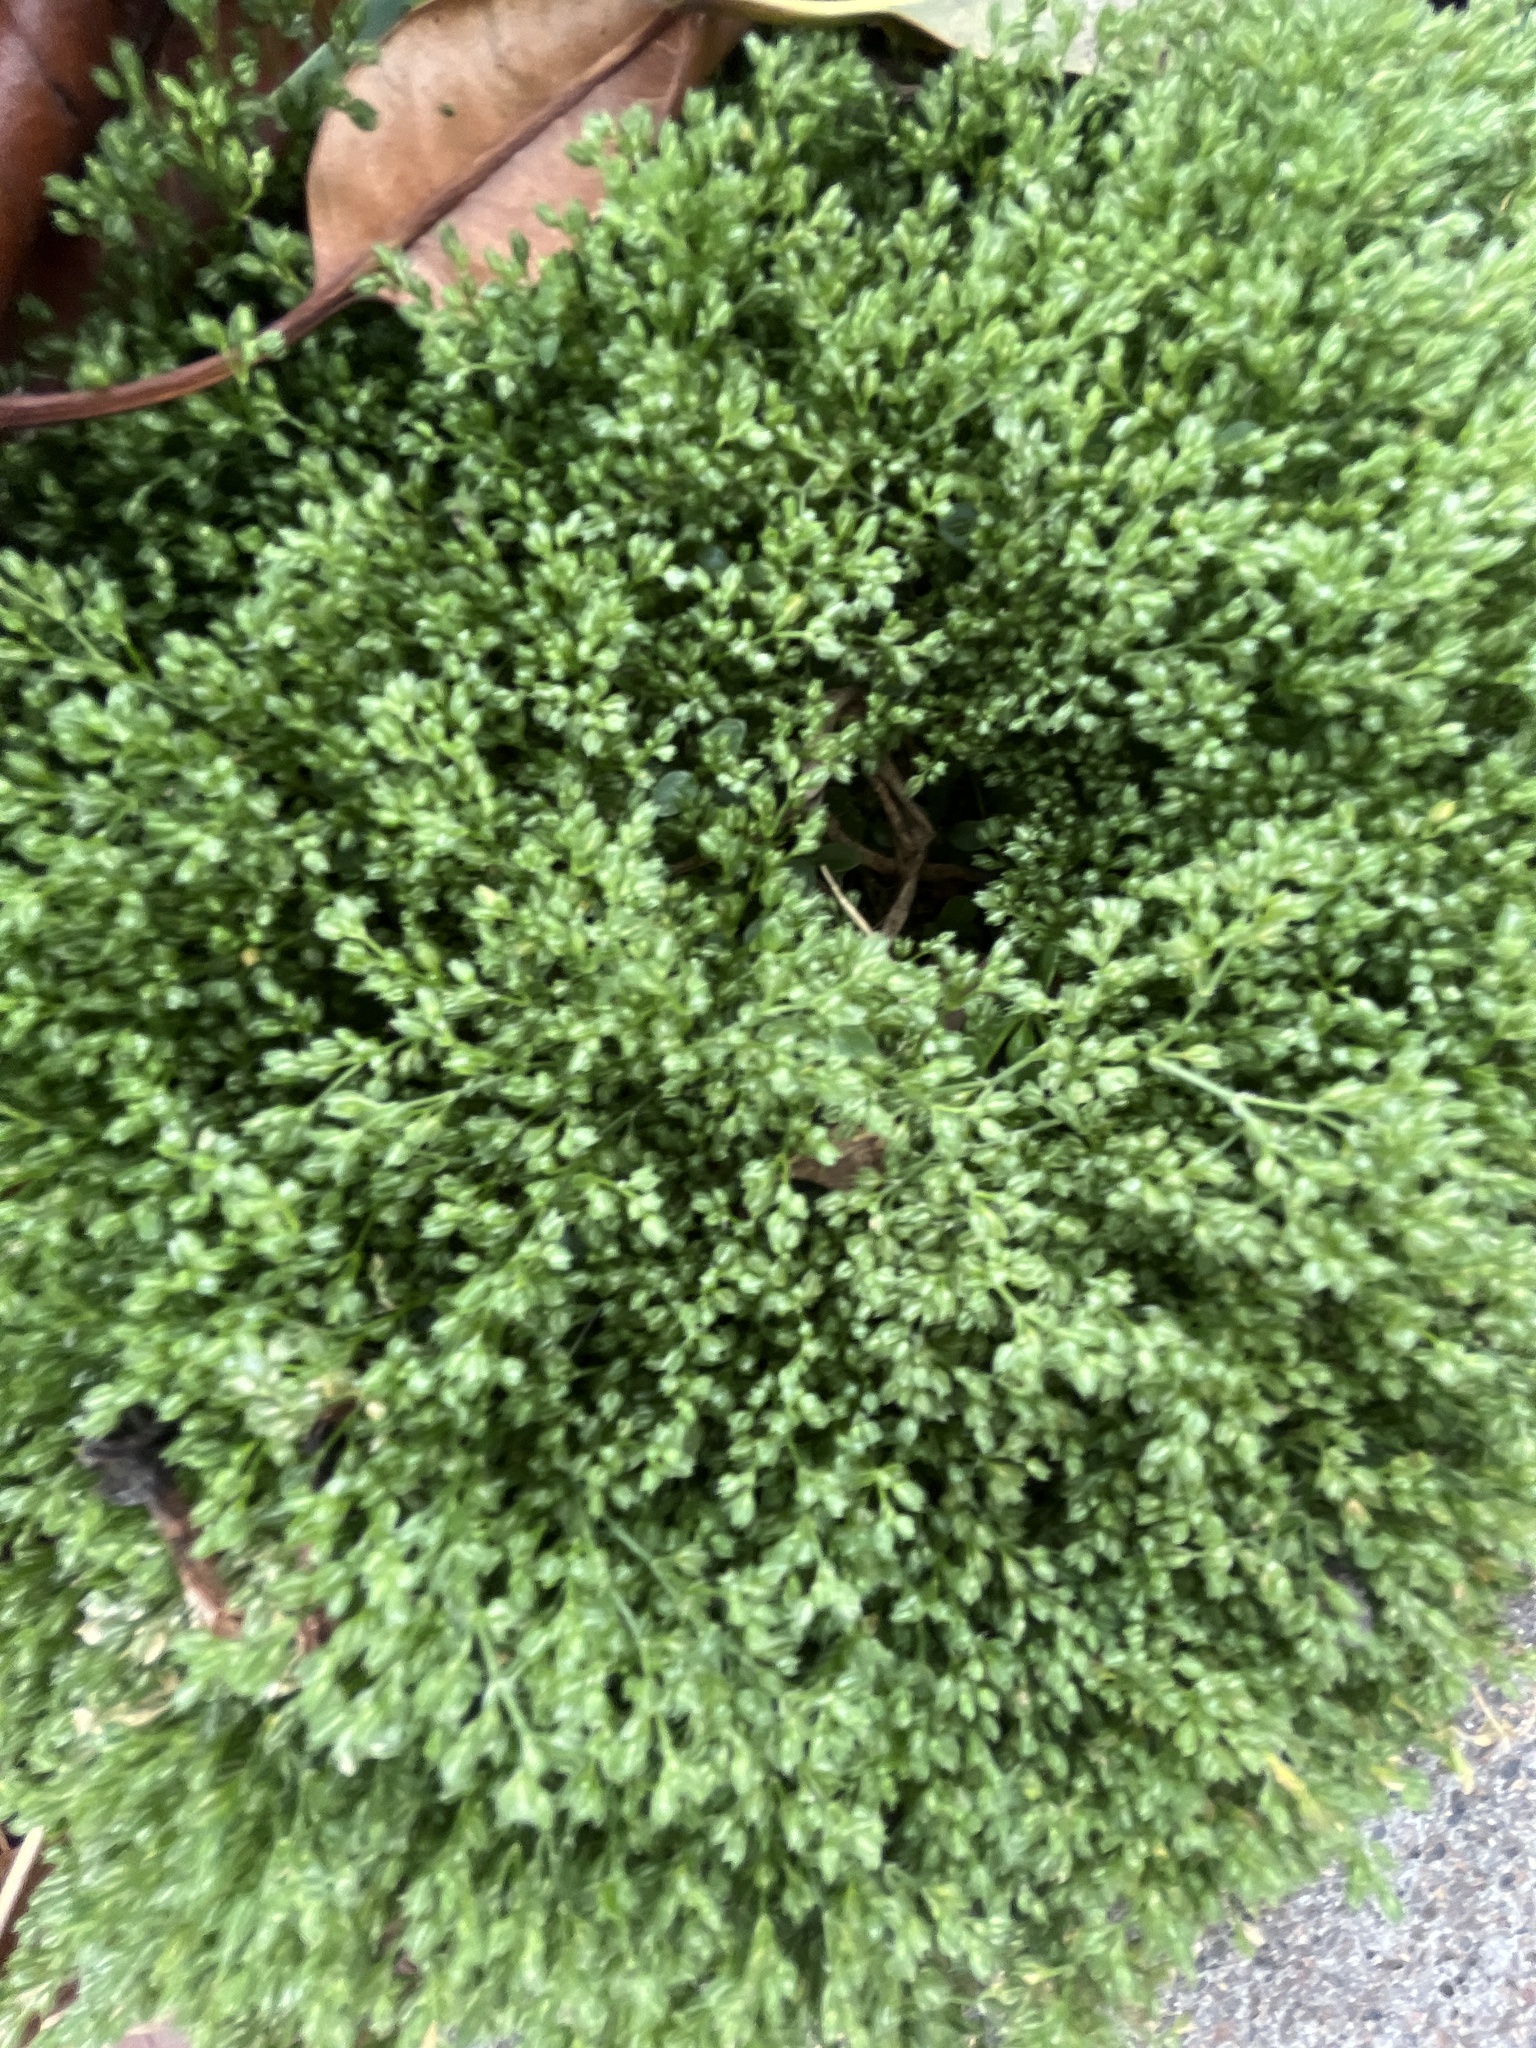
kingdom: Plantae
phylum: Tracheophyta
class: Magnoliopsida
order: Caryophyllales
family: Caryophyllaceae
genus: Polycarpon
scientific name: Polycarpon tetraphyllum
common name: Four-leaved all-seed
